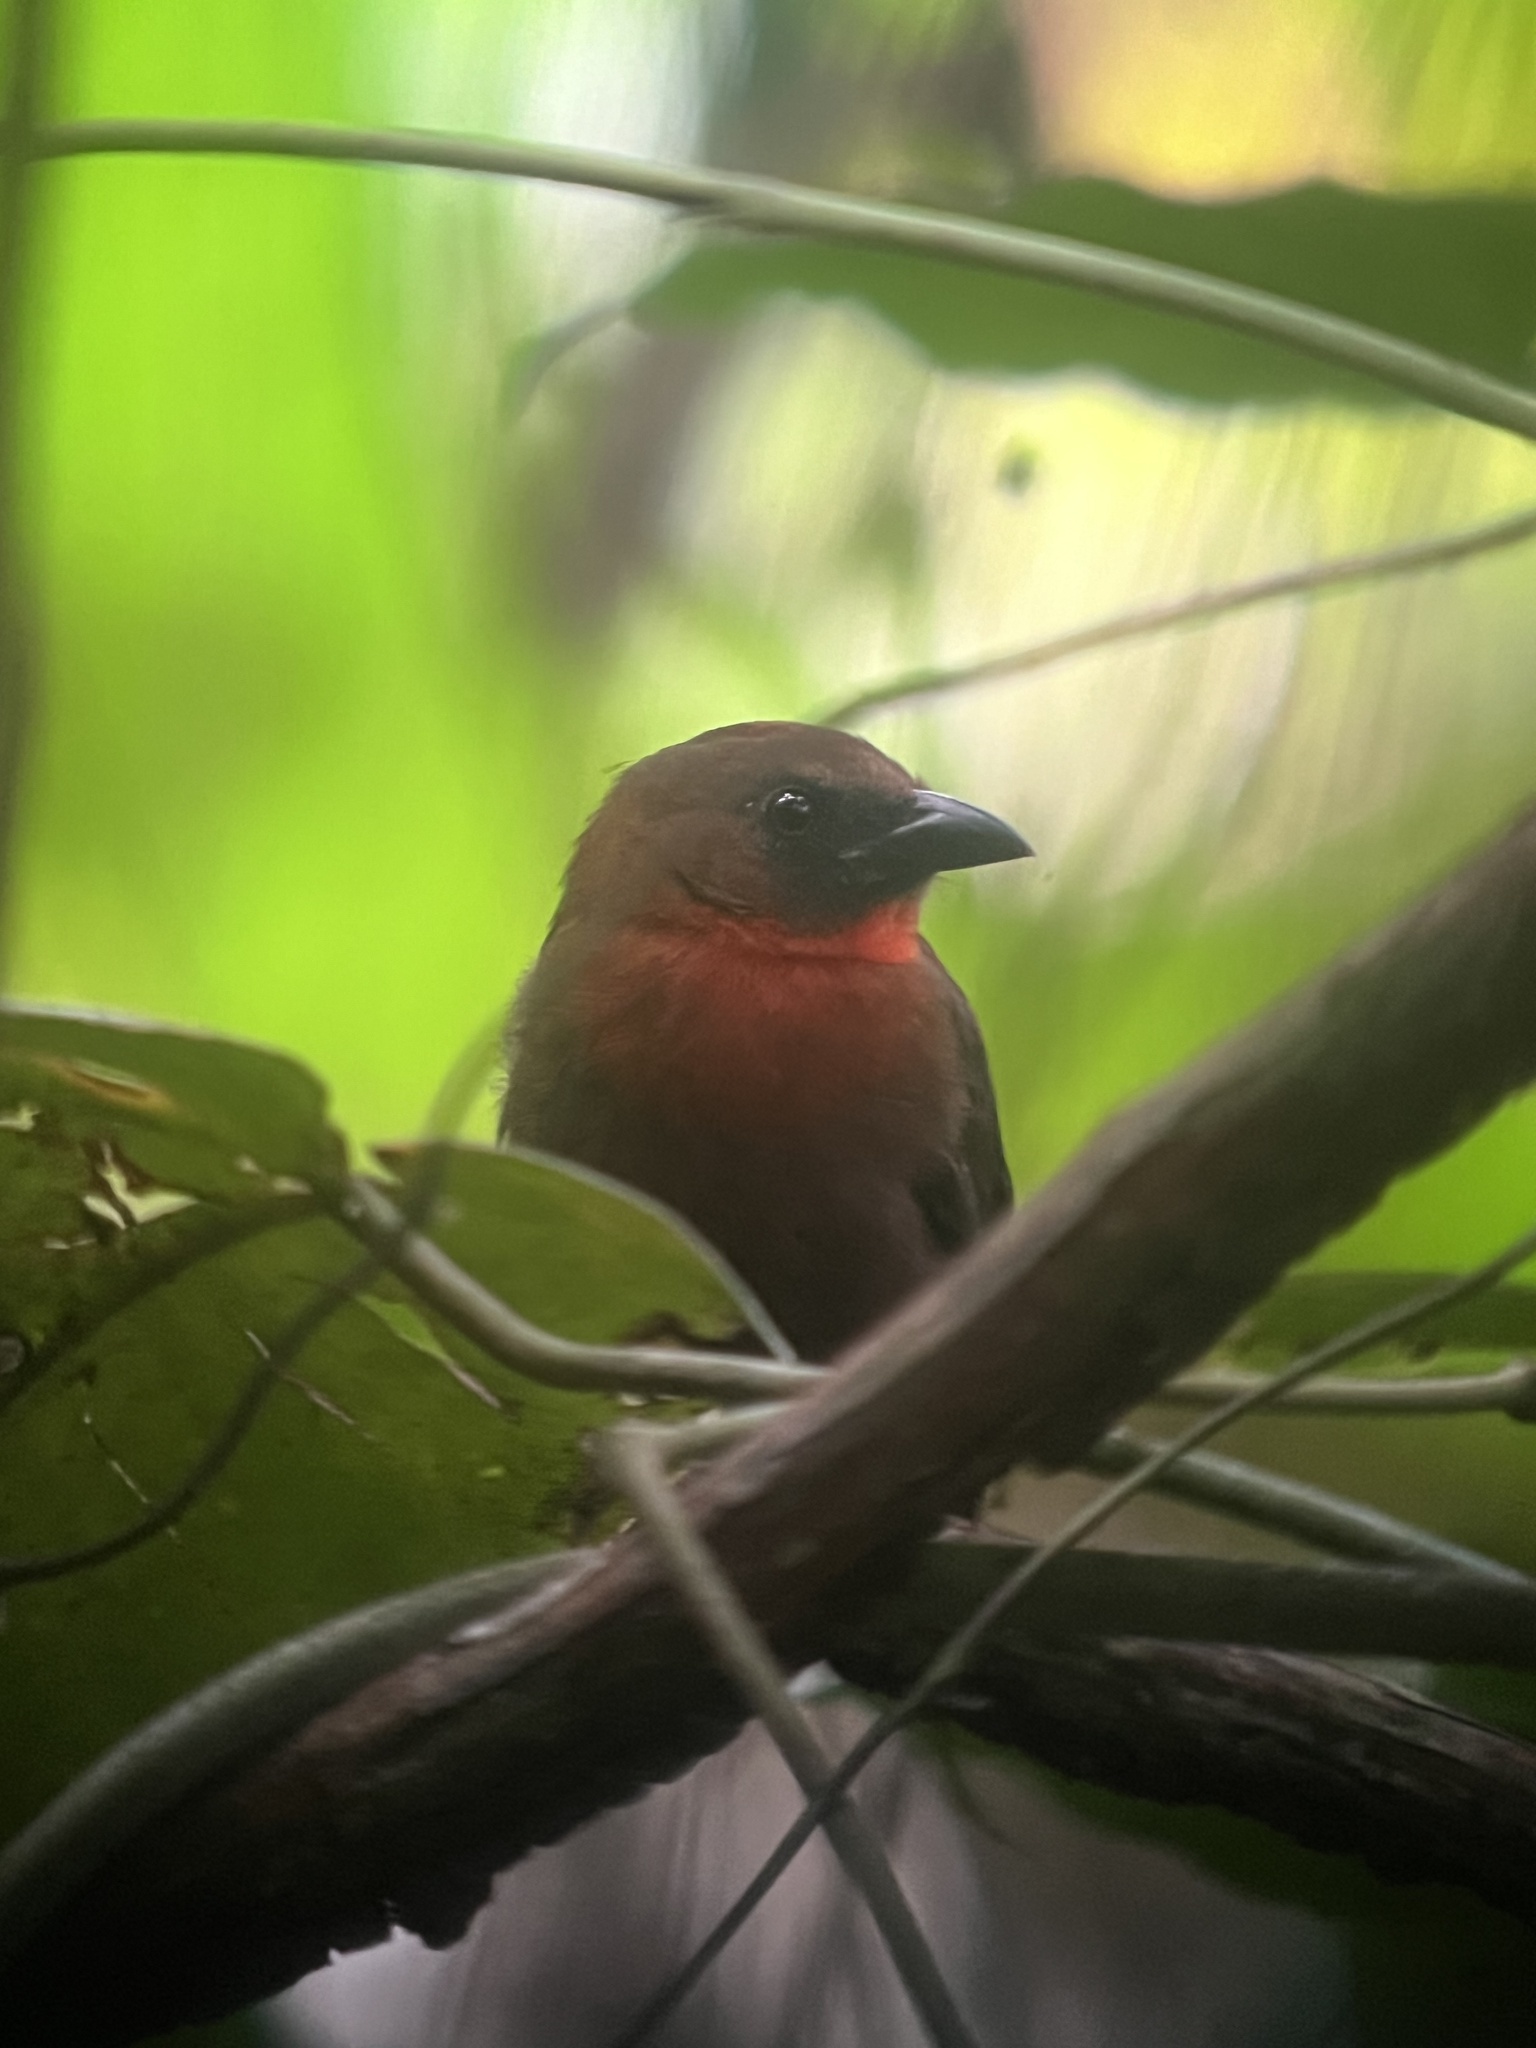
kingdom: Animalia
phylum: Chordata
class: Aves
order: Passeriformes
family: Cardinalidae
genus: Habia
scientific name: Habia fuscicauda
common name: Red-throated ant-tanager
